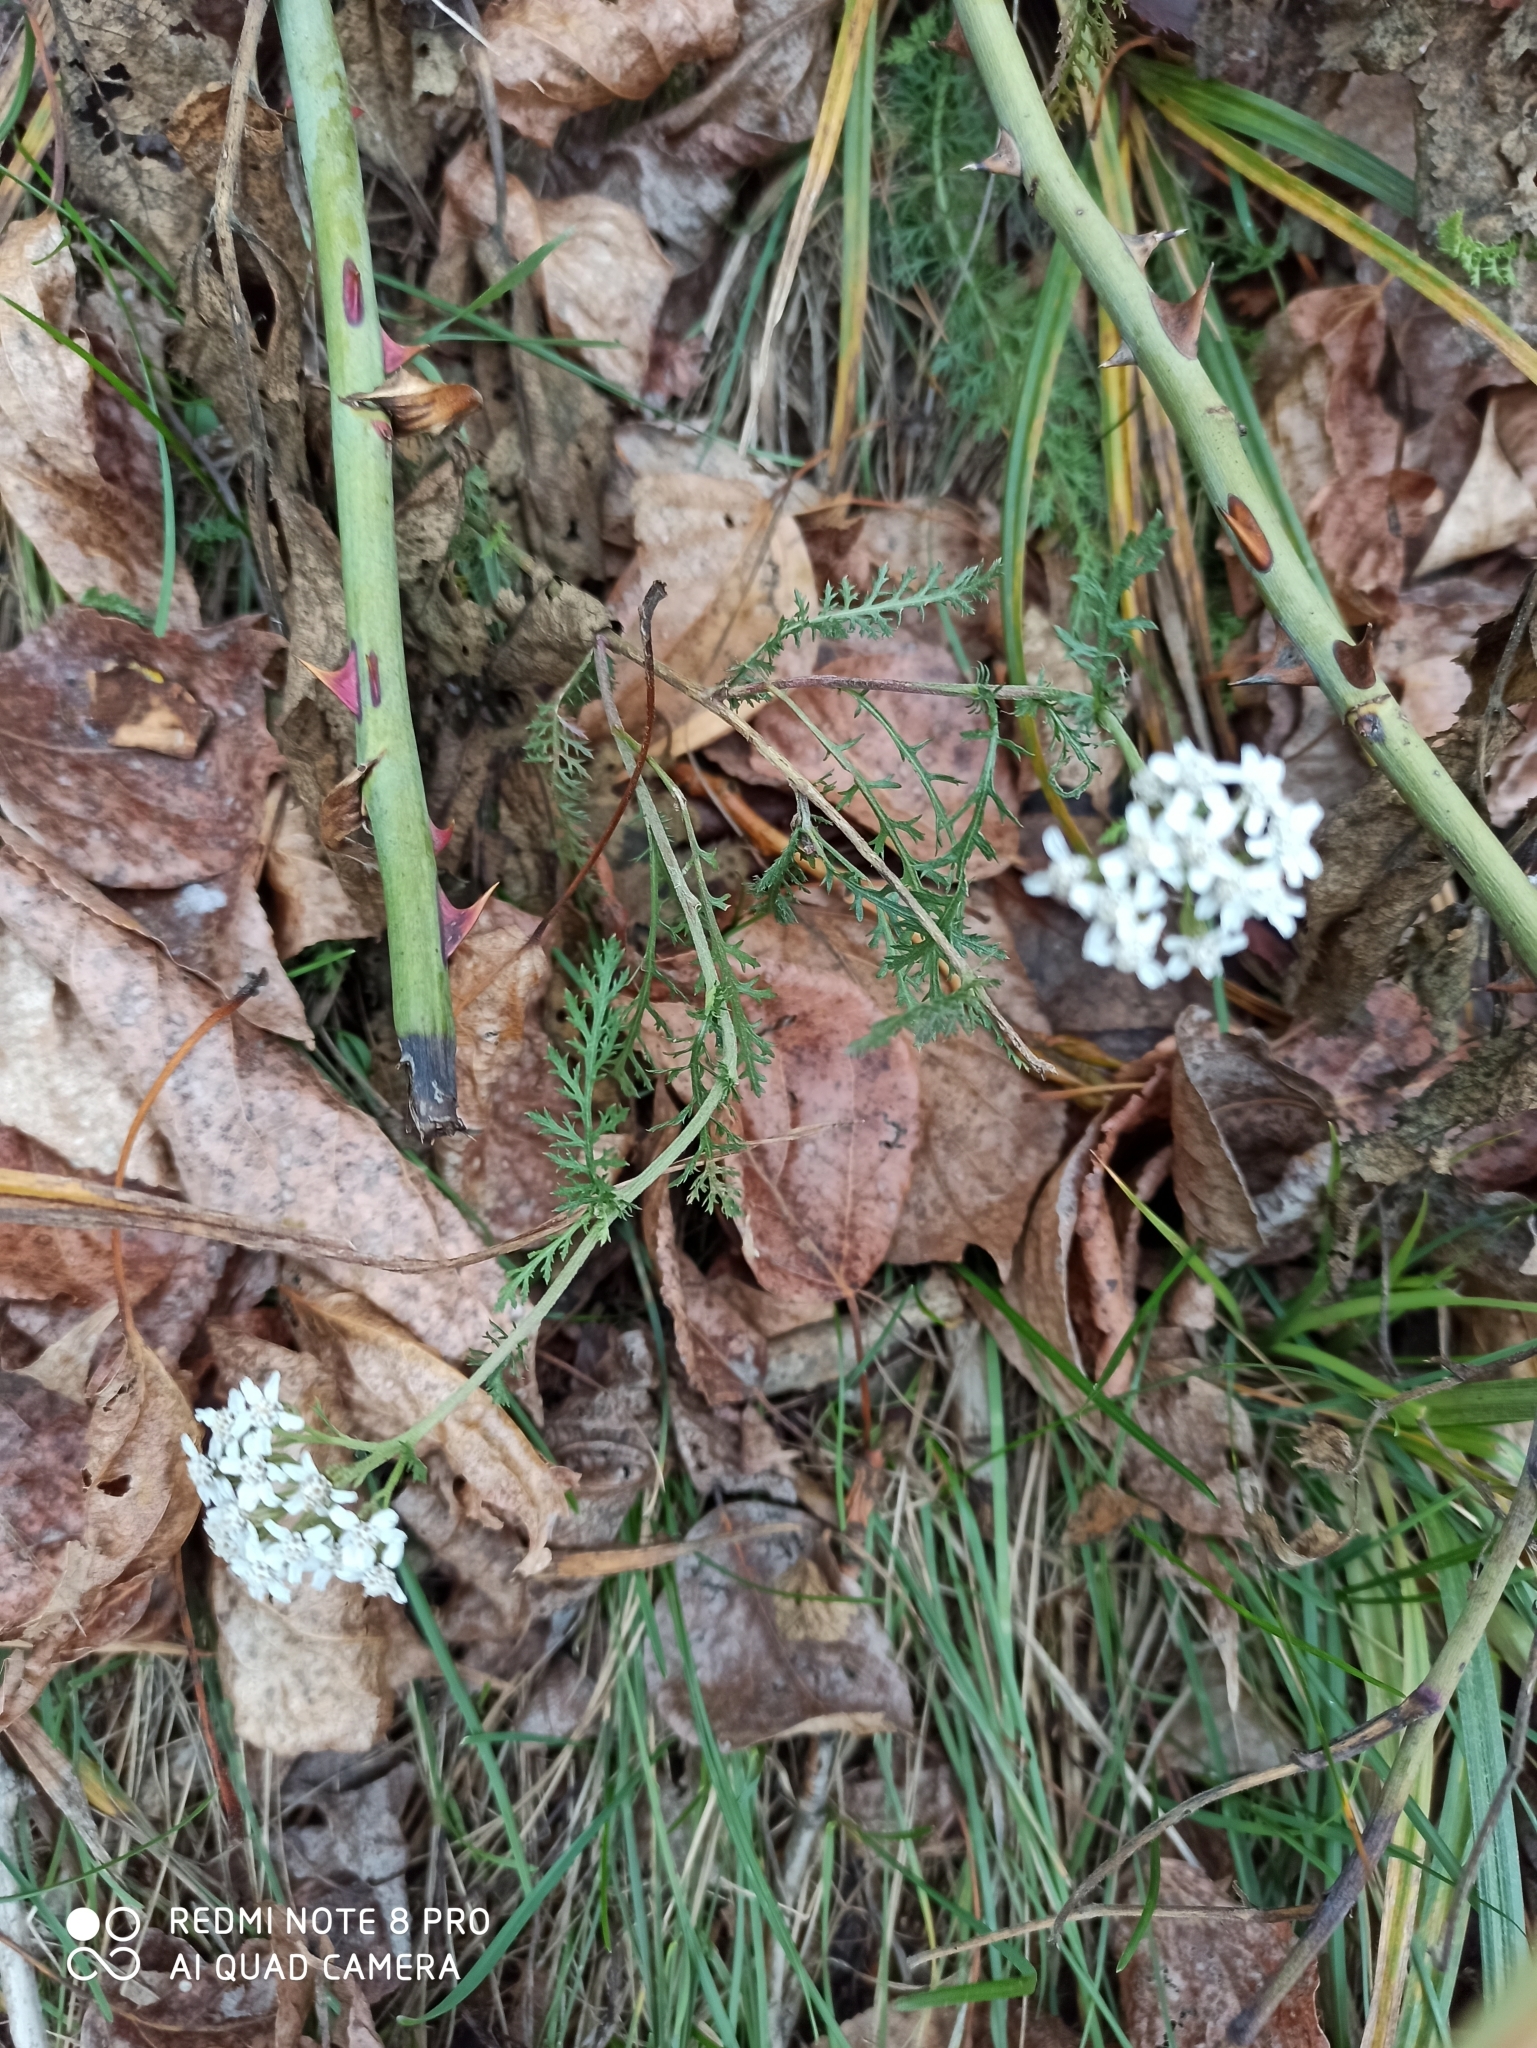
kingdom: Plantae
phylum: Tracheophyta
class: Magnoliopsida
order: Asterales
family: Asteraceae
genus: Achillea
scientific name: Achillea millefolium
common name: Yarrow
